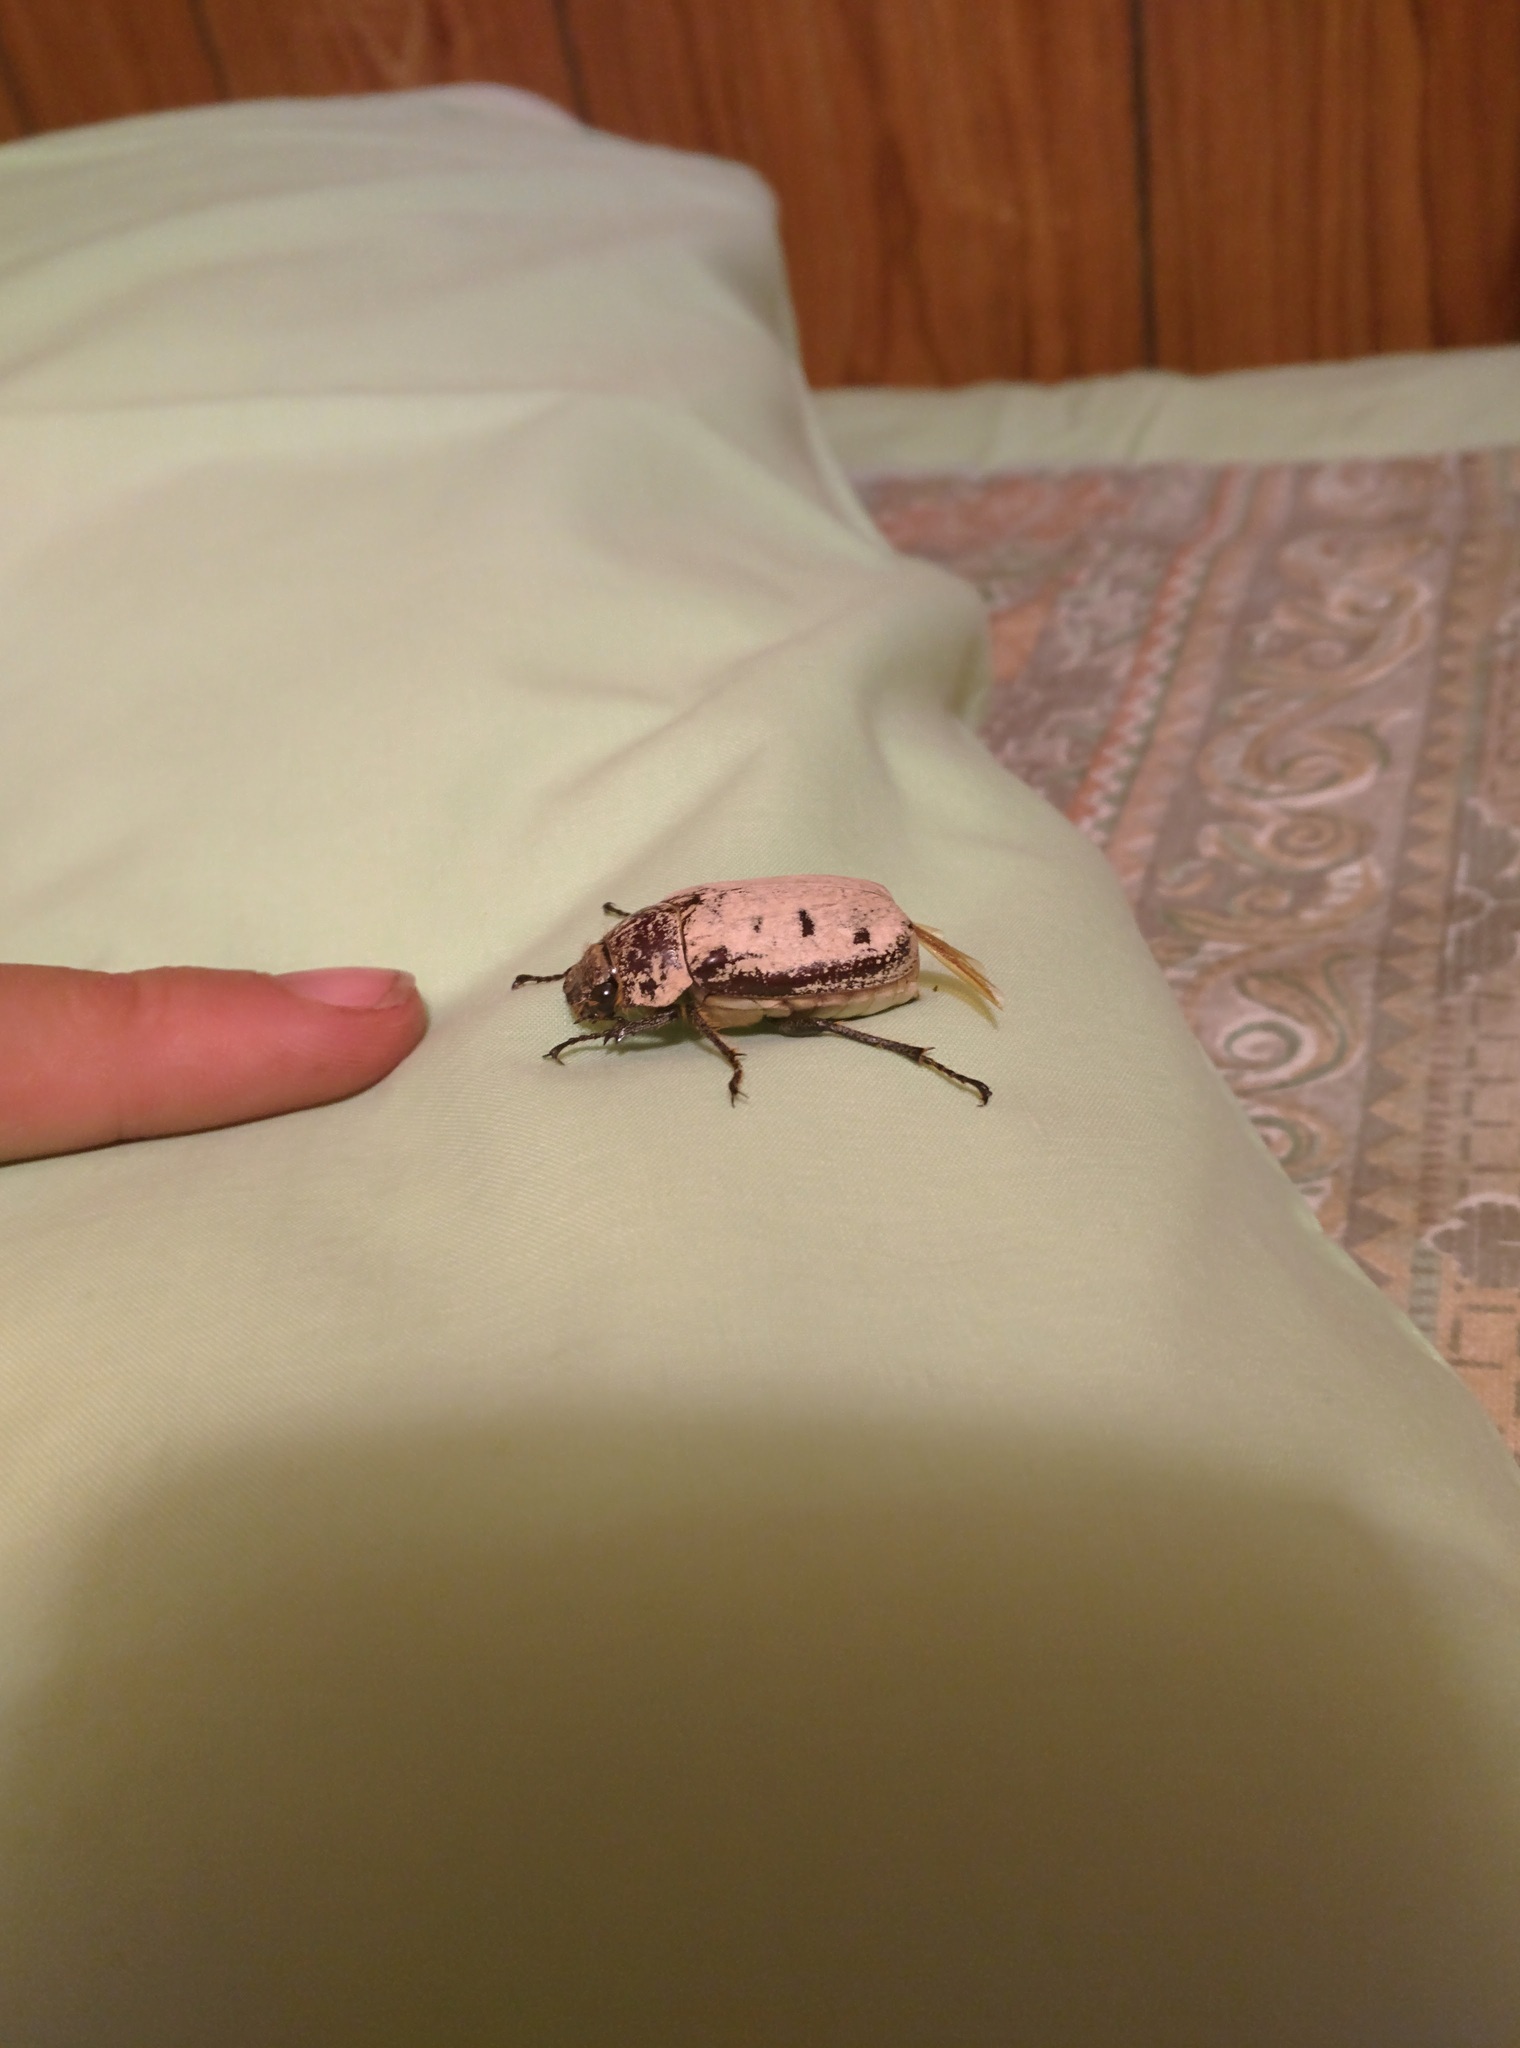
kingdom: Animalia
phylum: Arthropoda
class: Insecta
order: Coleoptera
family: Scarabaeidae
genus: Dermolepida
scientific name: Dermolepida albohirtum
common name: Greyback cane beetle
